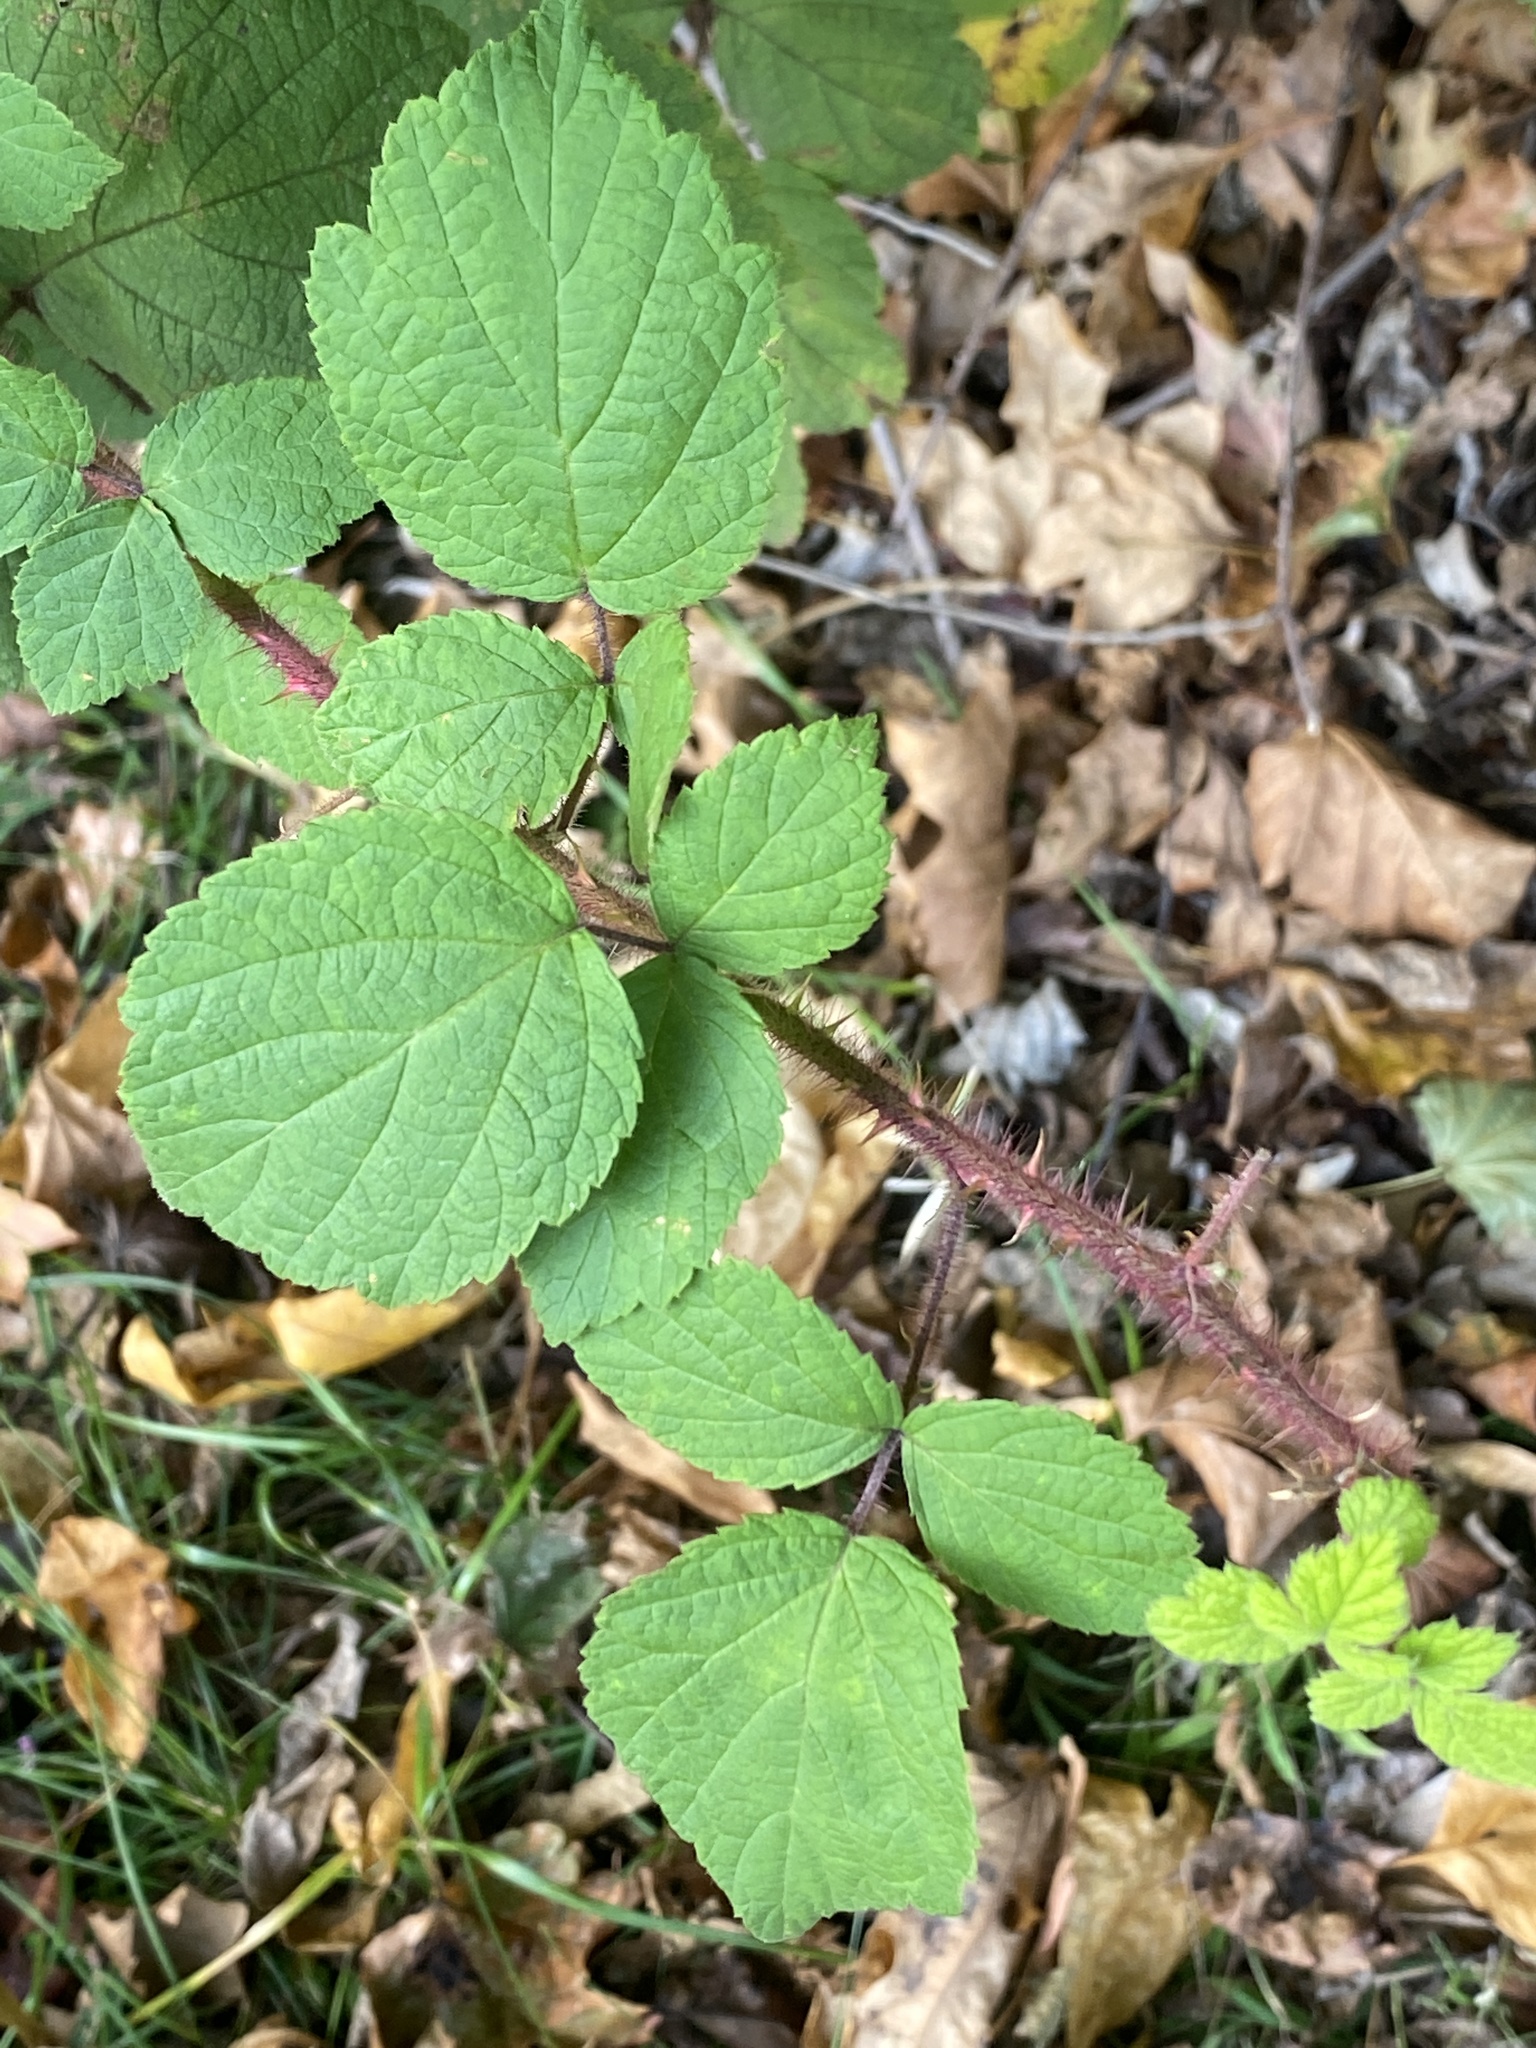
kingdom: Plantae
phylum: Tracheophyta
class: Magnoliopsida
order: Rosales
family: Rosaceae
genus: Rubus
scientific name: Rubus phoenicolasius
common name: Japanese wineberry
